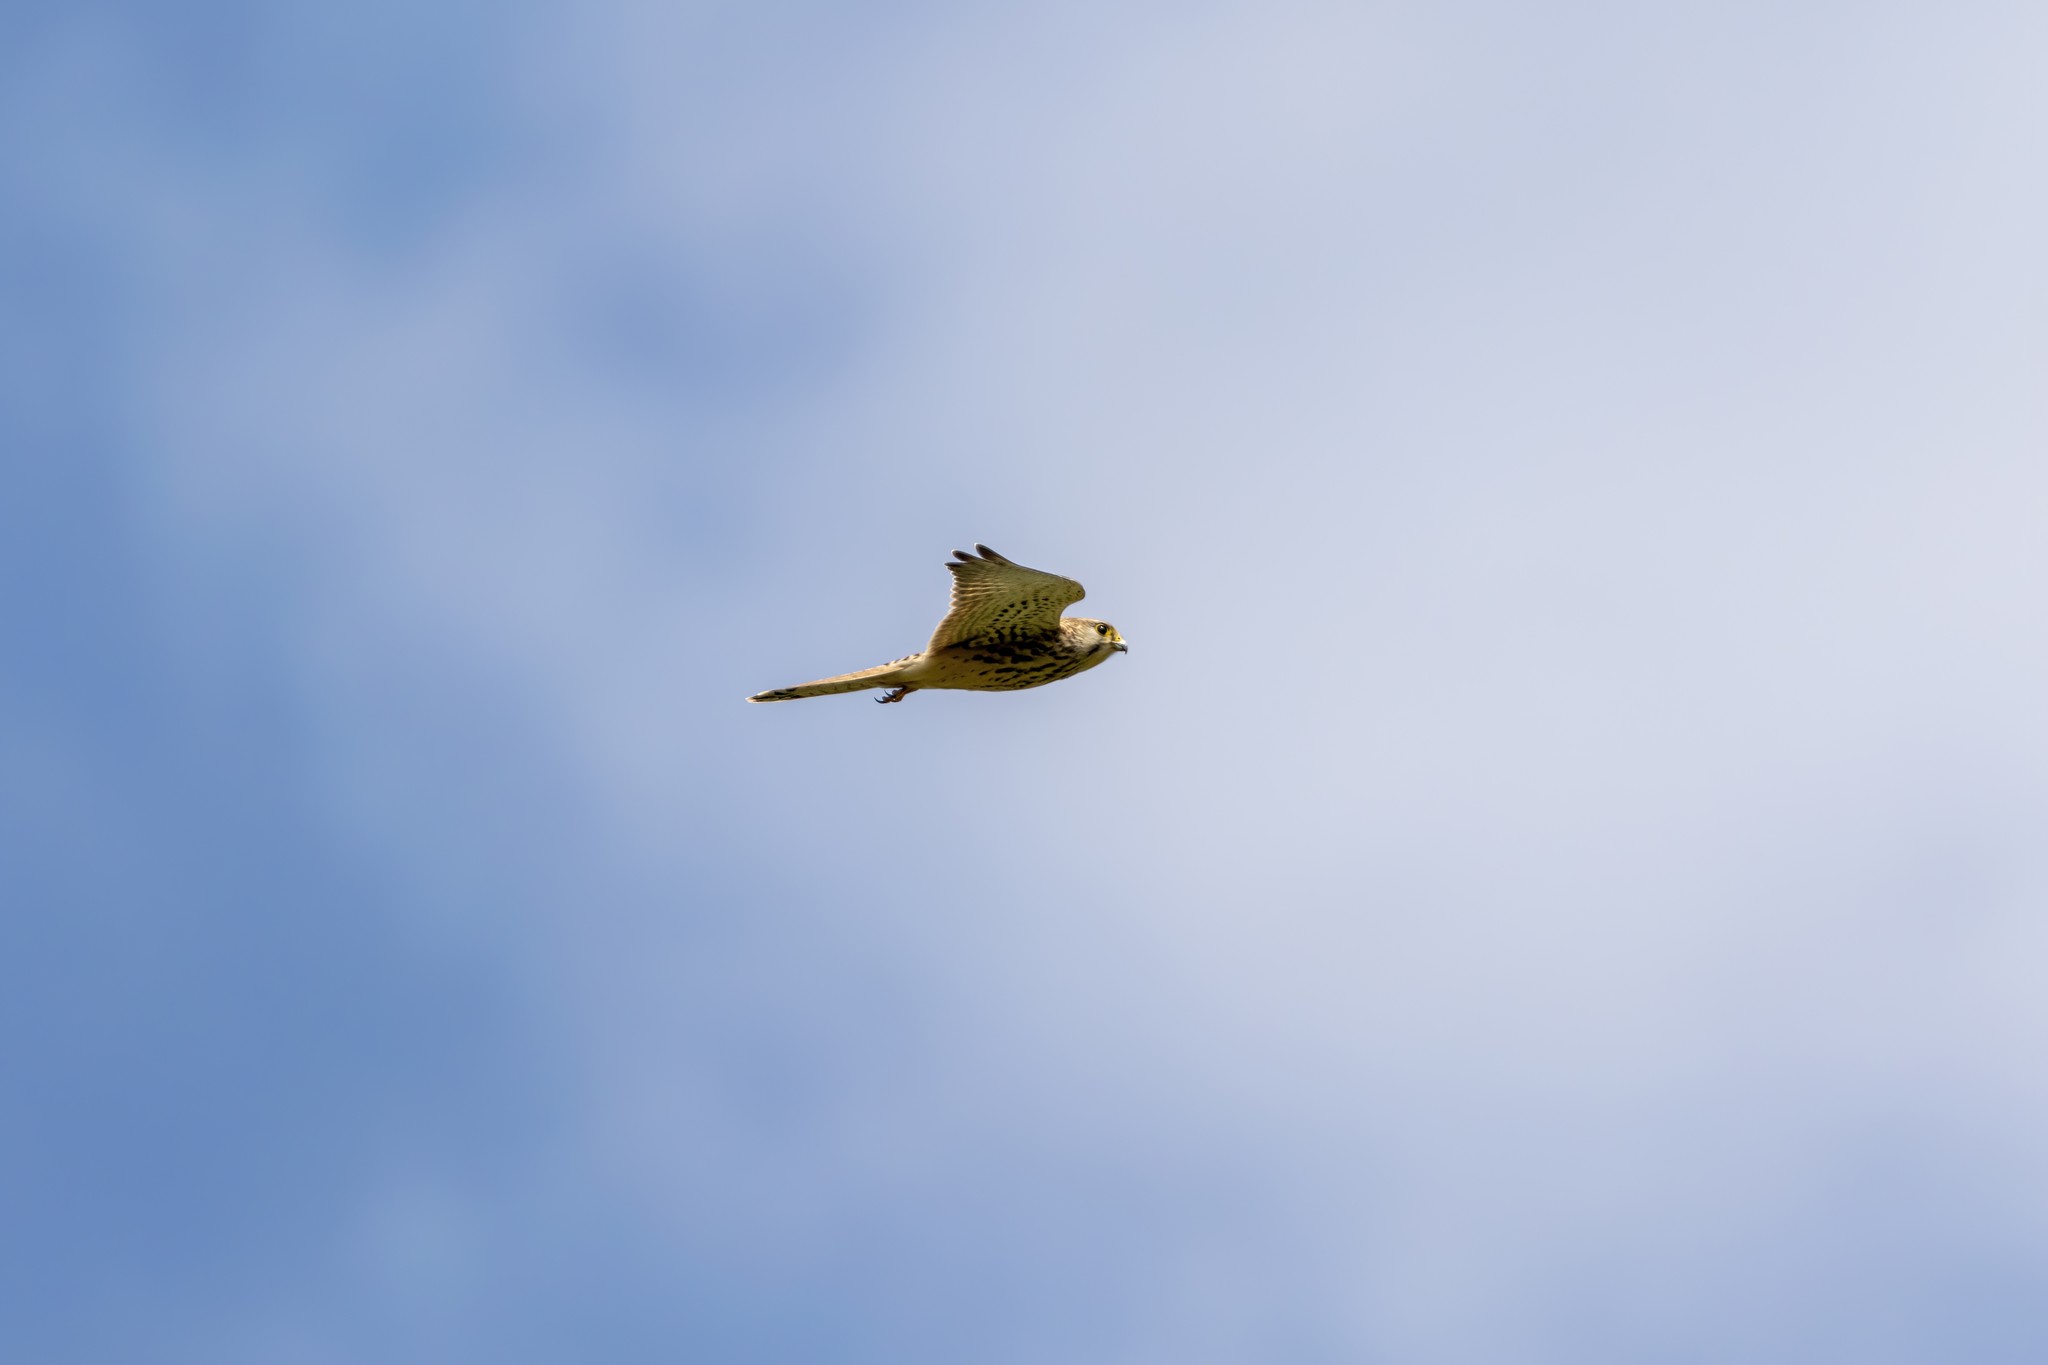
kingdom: Animalia
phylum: Chordata
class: Aves
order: Falconiformes
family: Falconidae
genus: Falco
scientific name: Falco tinnunculus
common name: Common kestrel
